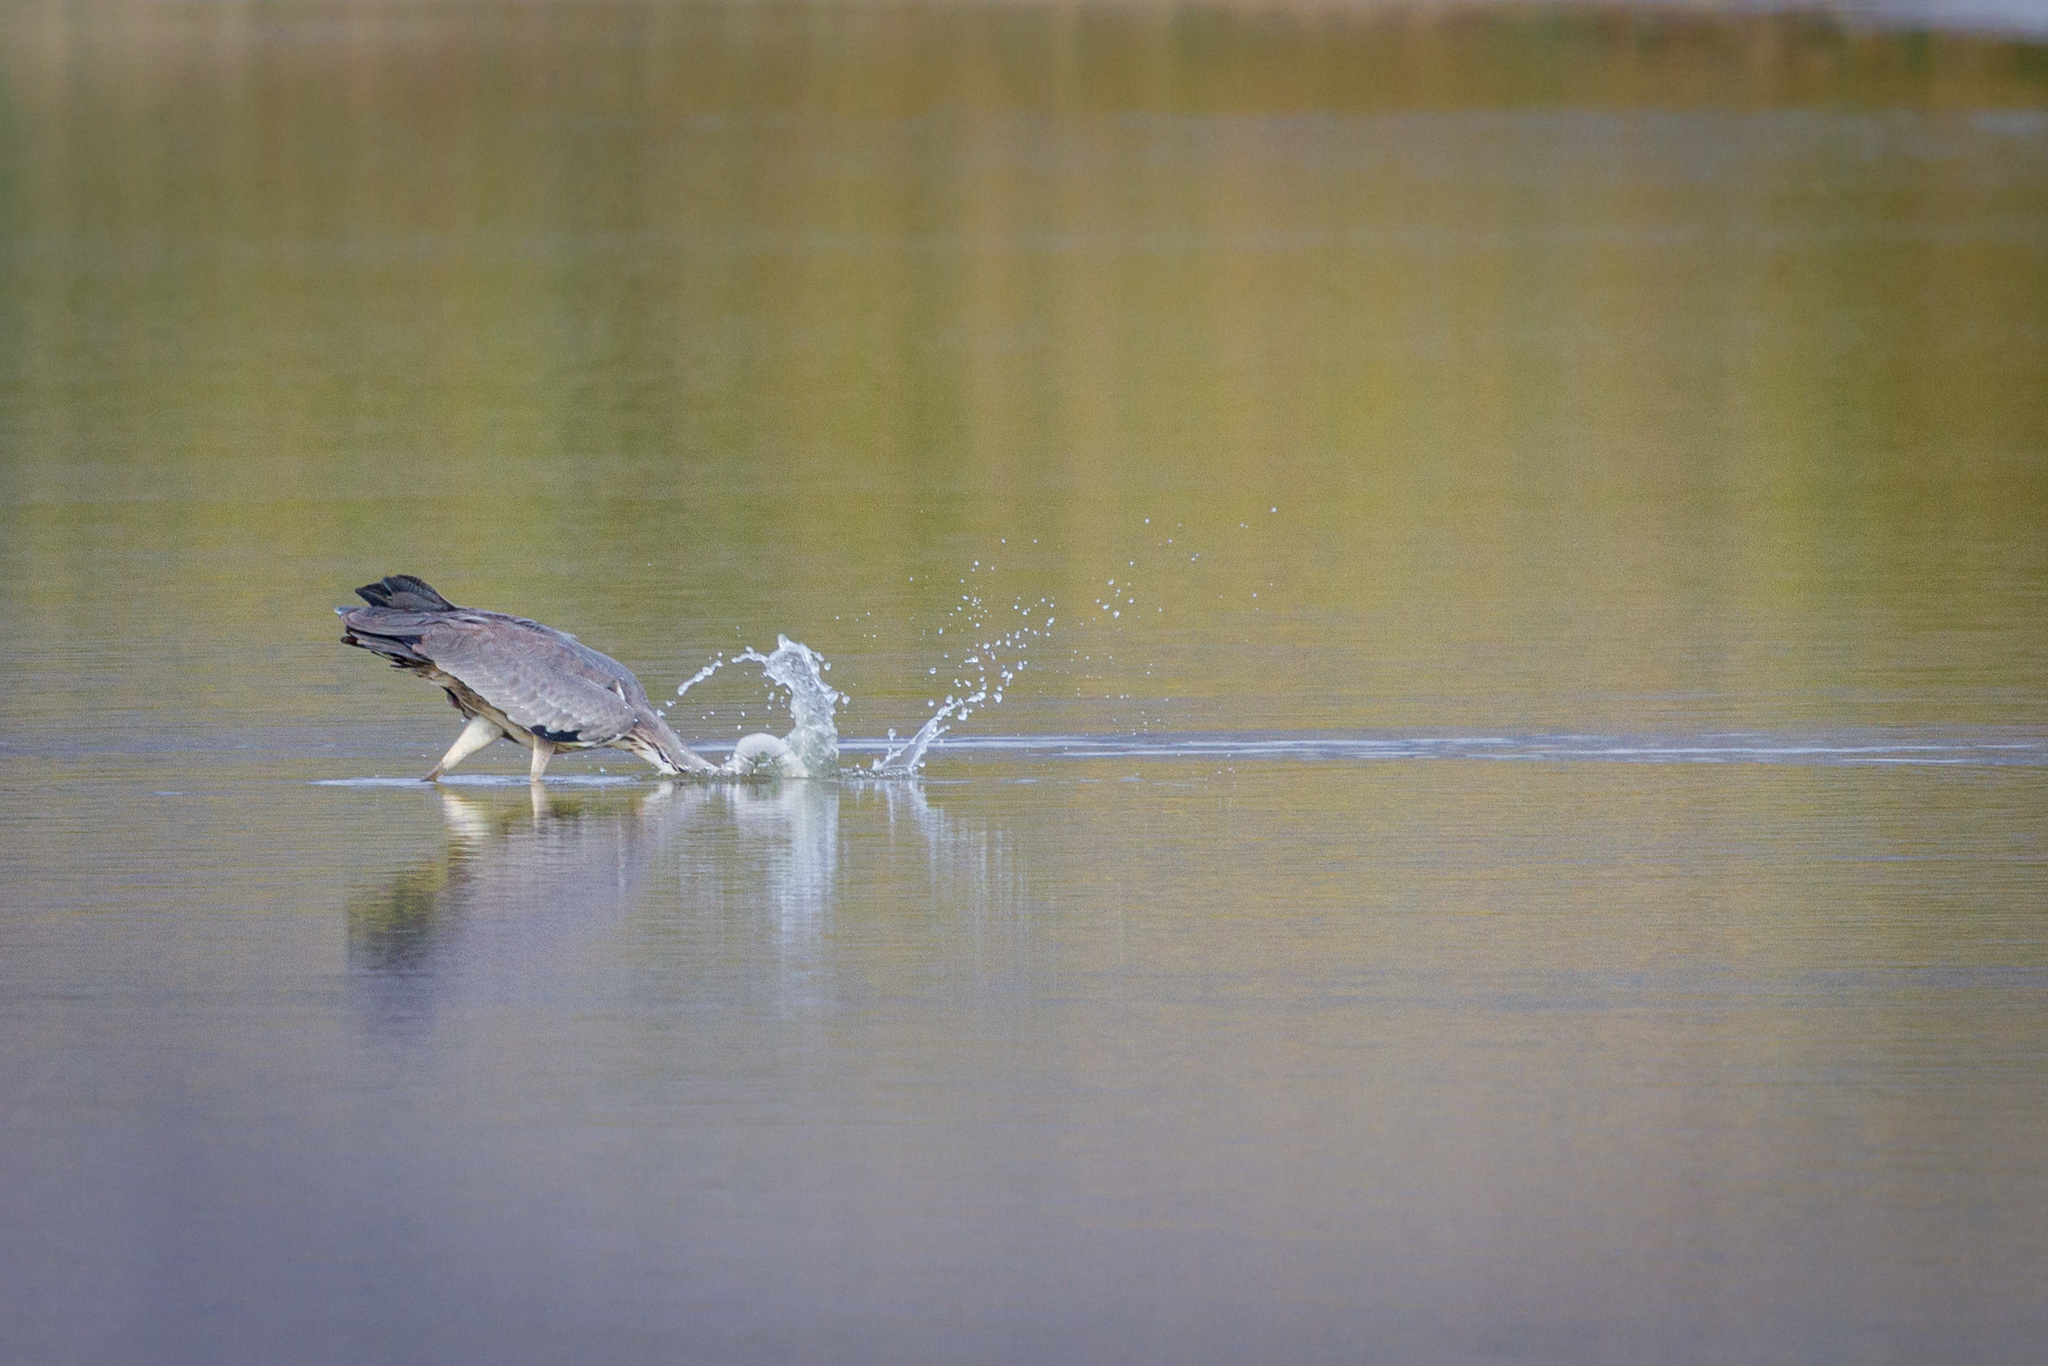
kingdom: Animalia
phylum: Chordata
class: Aves
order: Pelecaniformes
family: Ardeidae
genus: Ardea
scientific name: Ardea cinerea
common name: Grey heron
